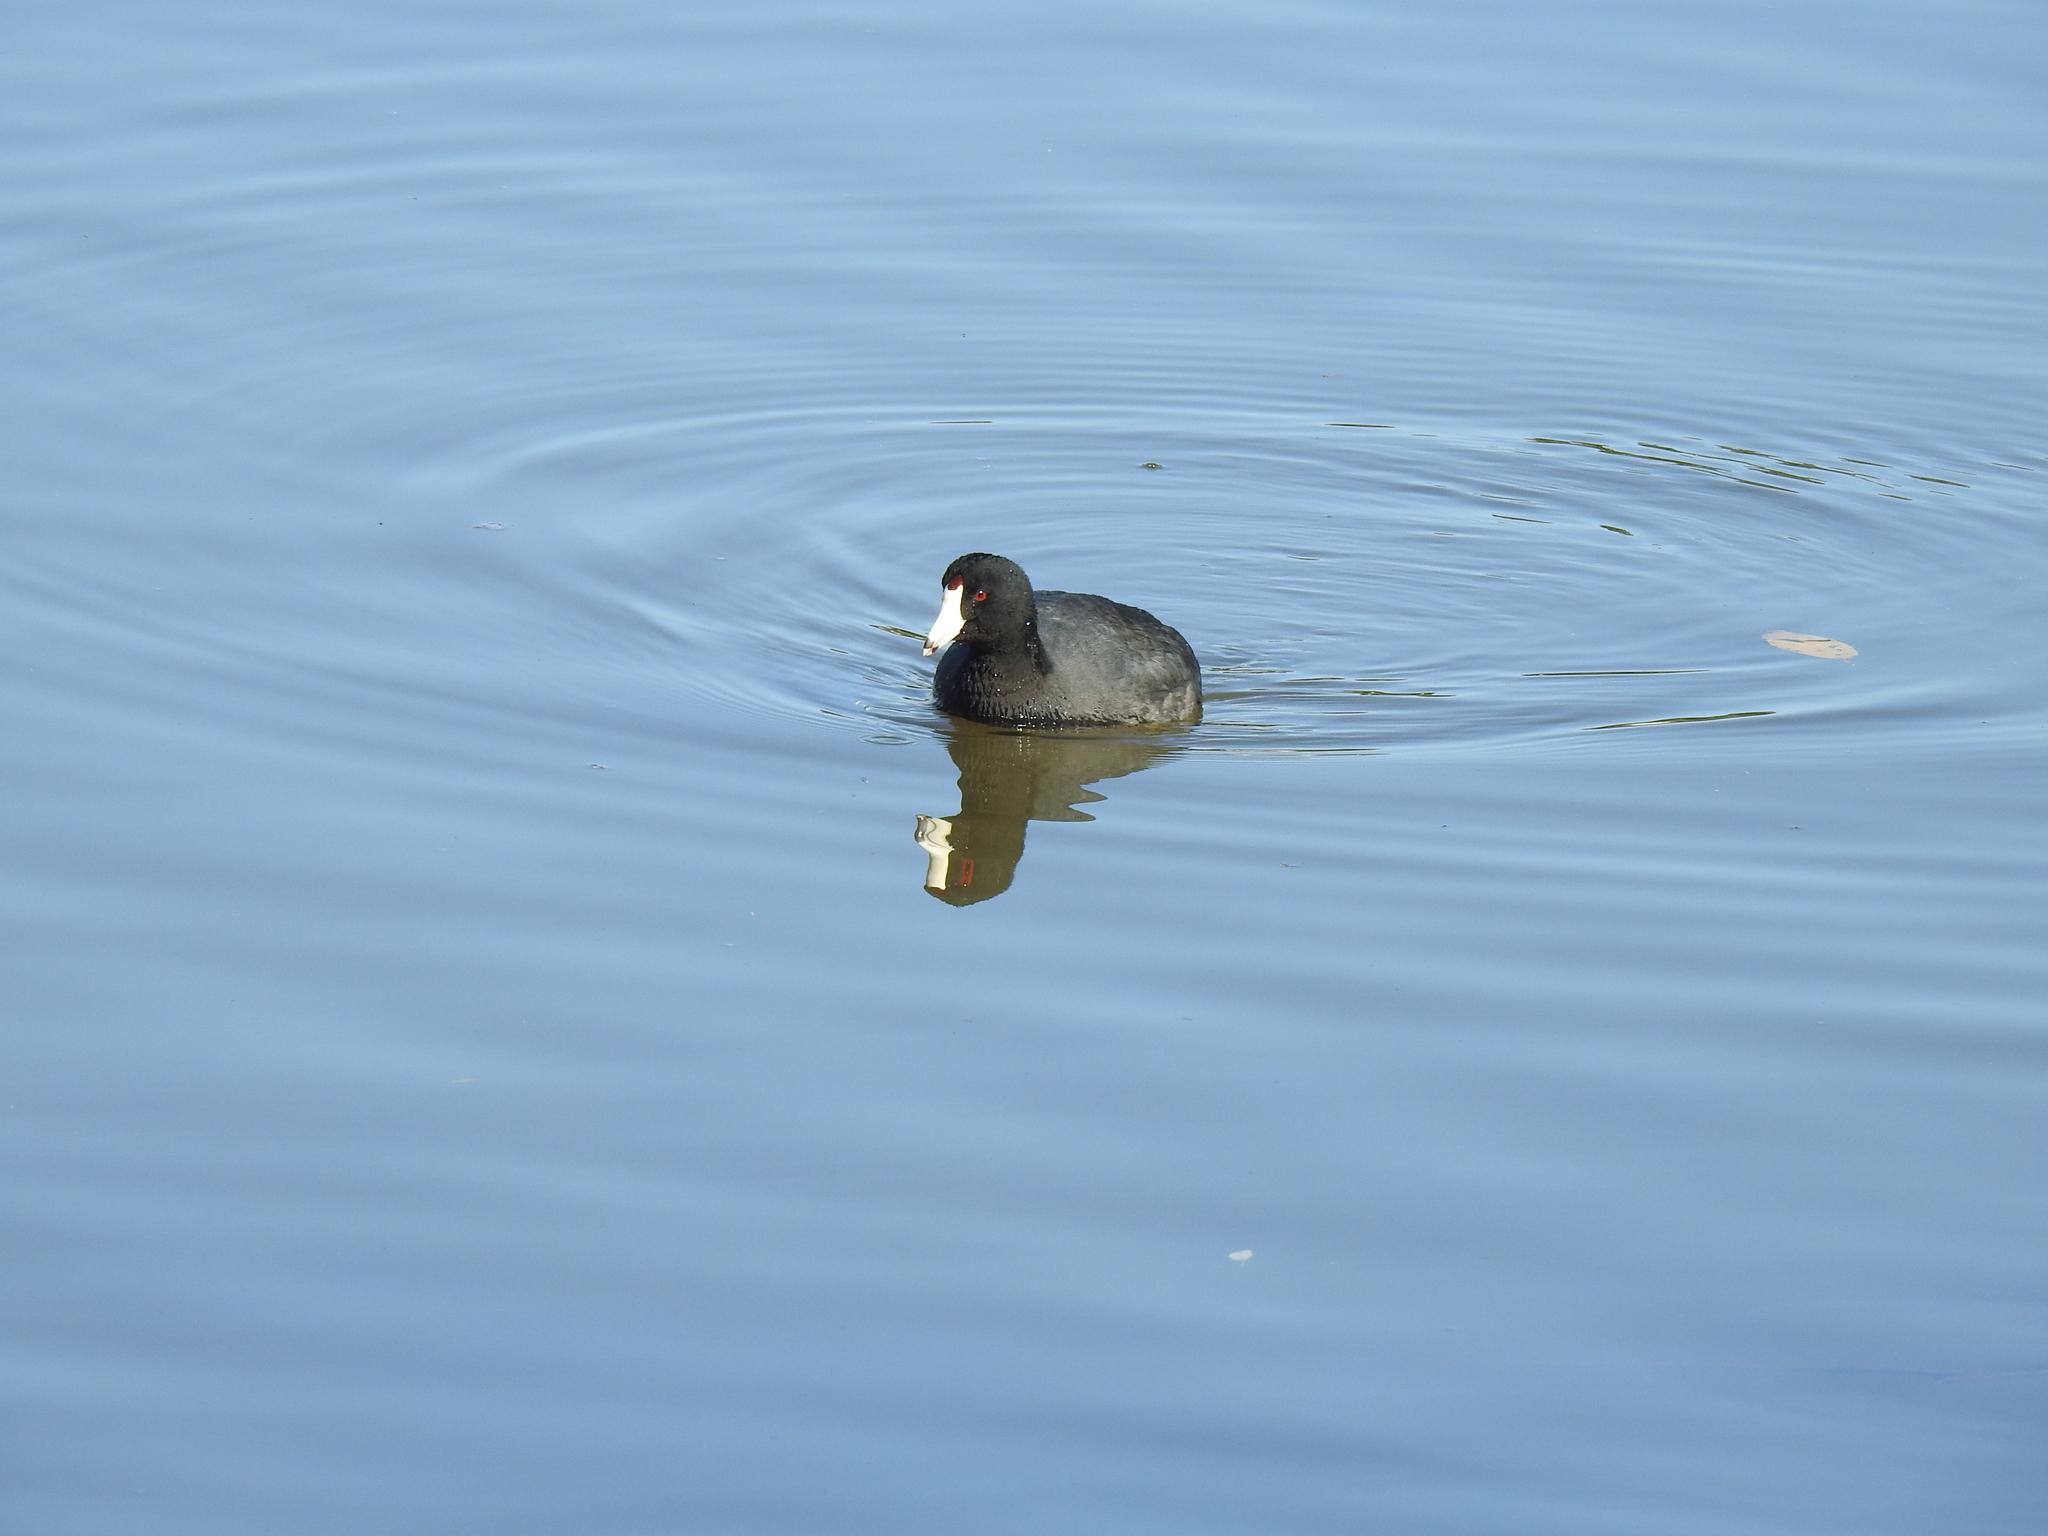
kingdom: Animalia
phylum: Chordata
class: Aves
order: Gruiformes
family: Rallidae
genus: Fulica
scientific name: Fulica americana
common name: American coot
